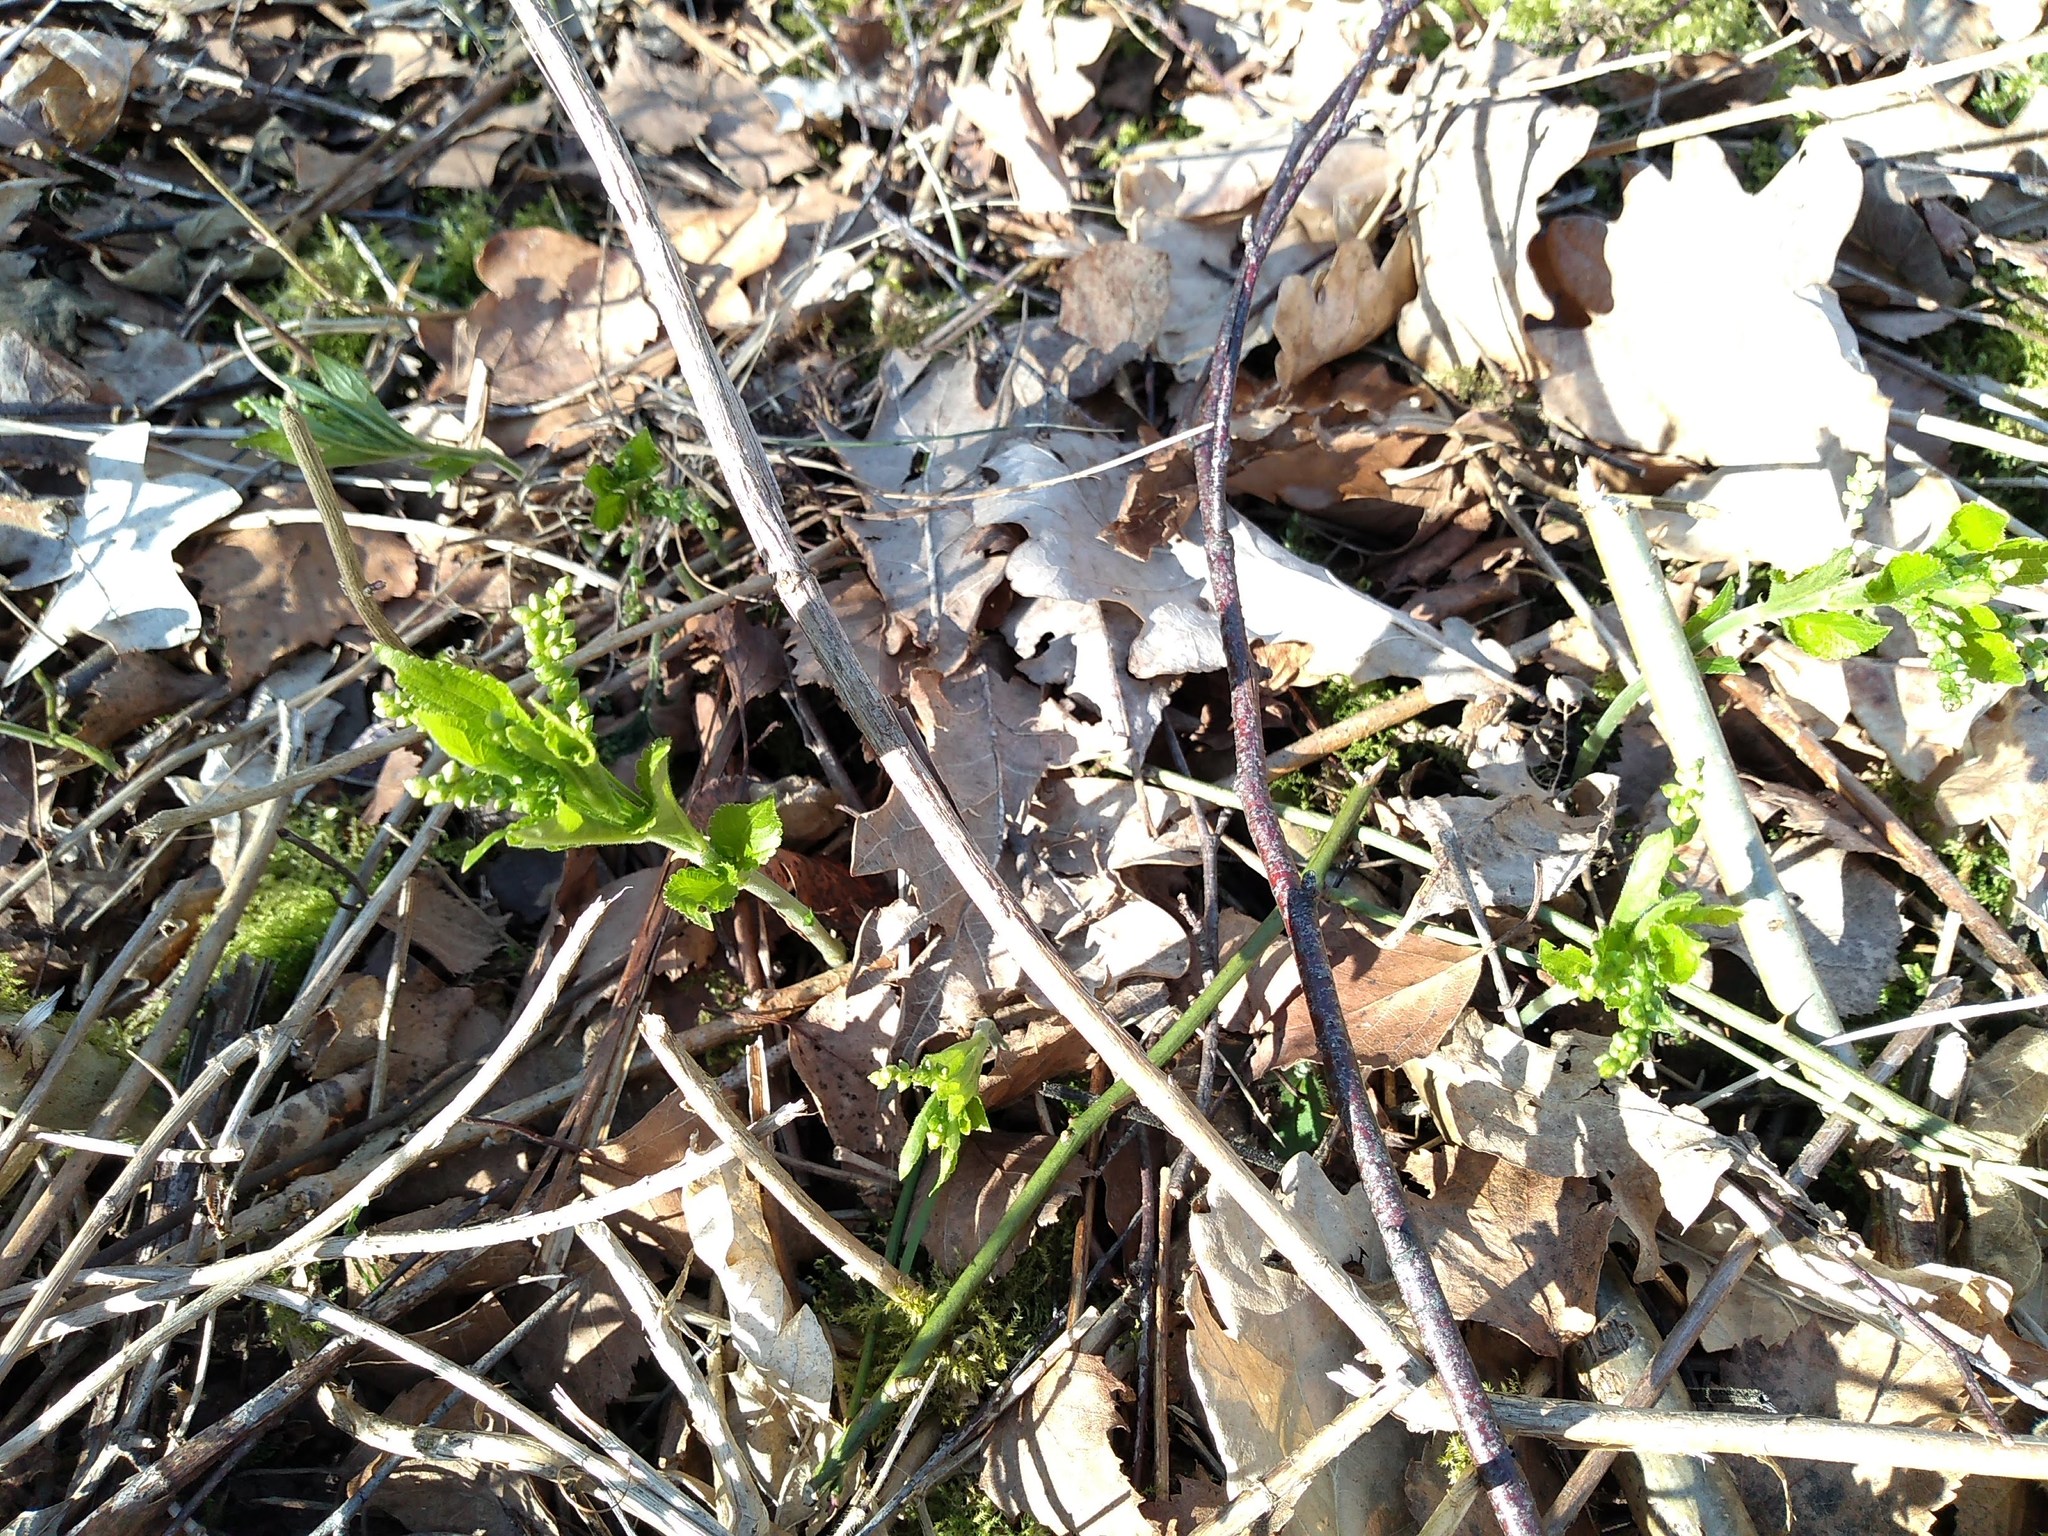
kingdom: Plantae
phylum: Tracheophyta
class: Magnoliopsida
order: Malpighiales
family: Euphorbiaceae
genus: Mercurialis
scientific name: Mercurialis perennis
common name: Dog mercury
